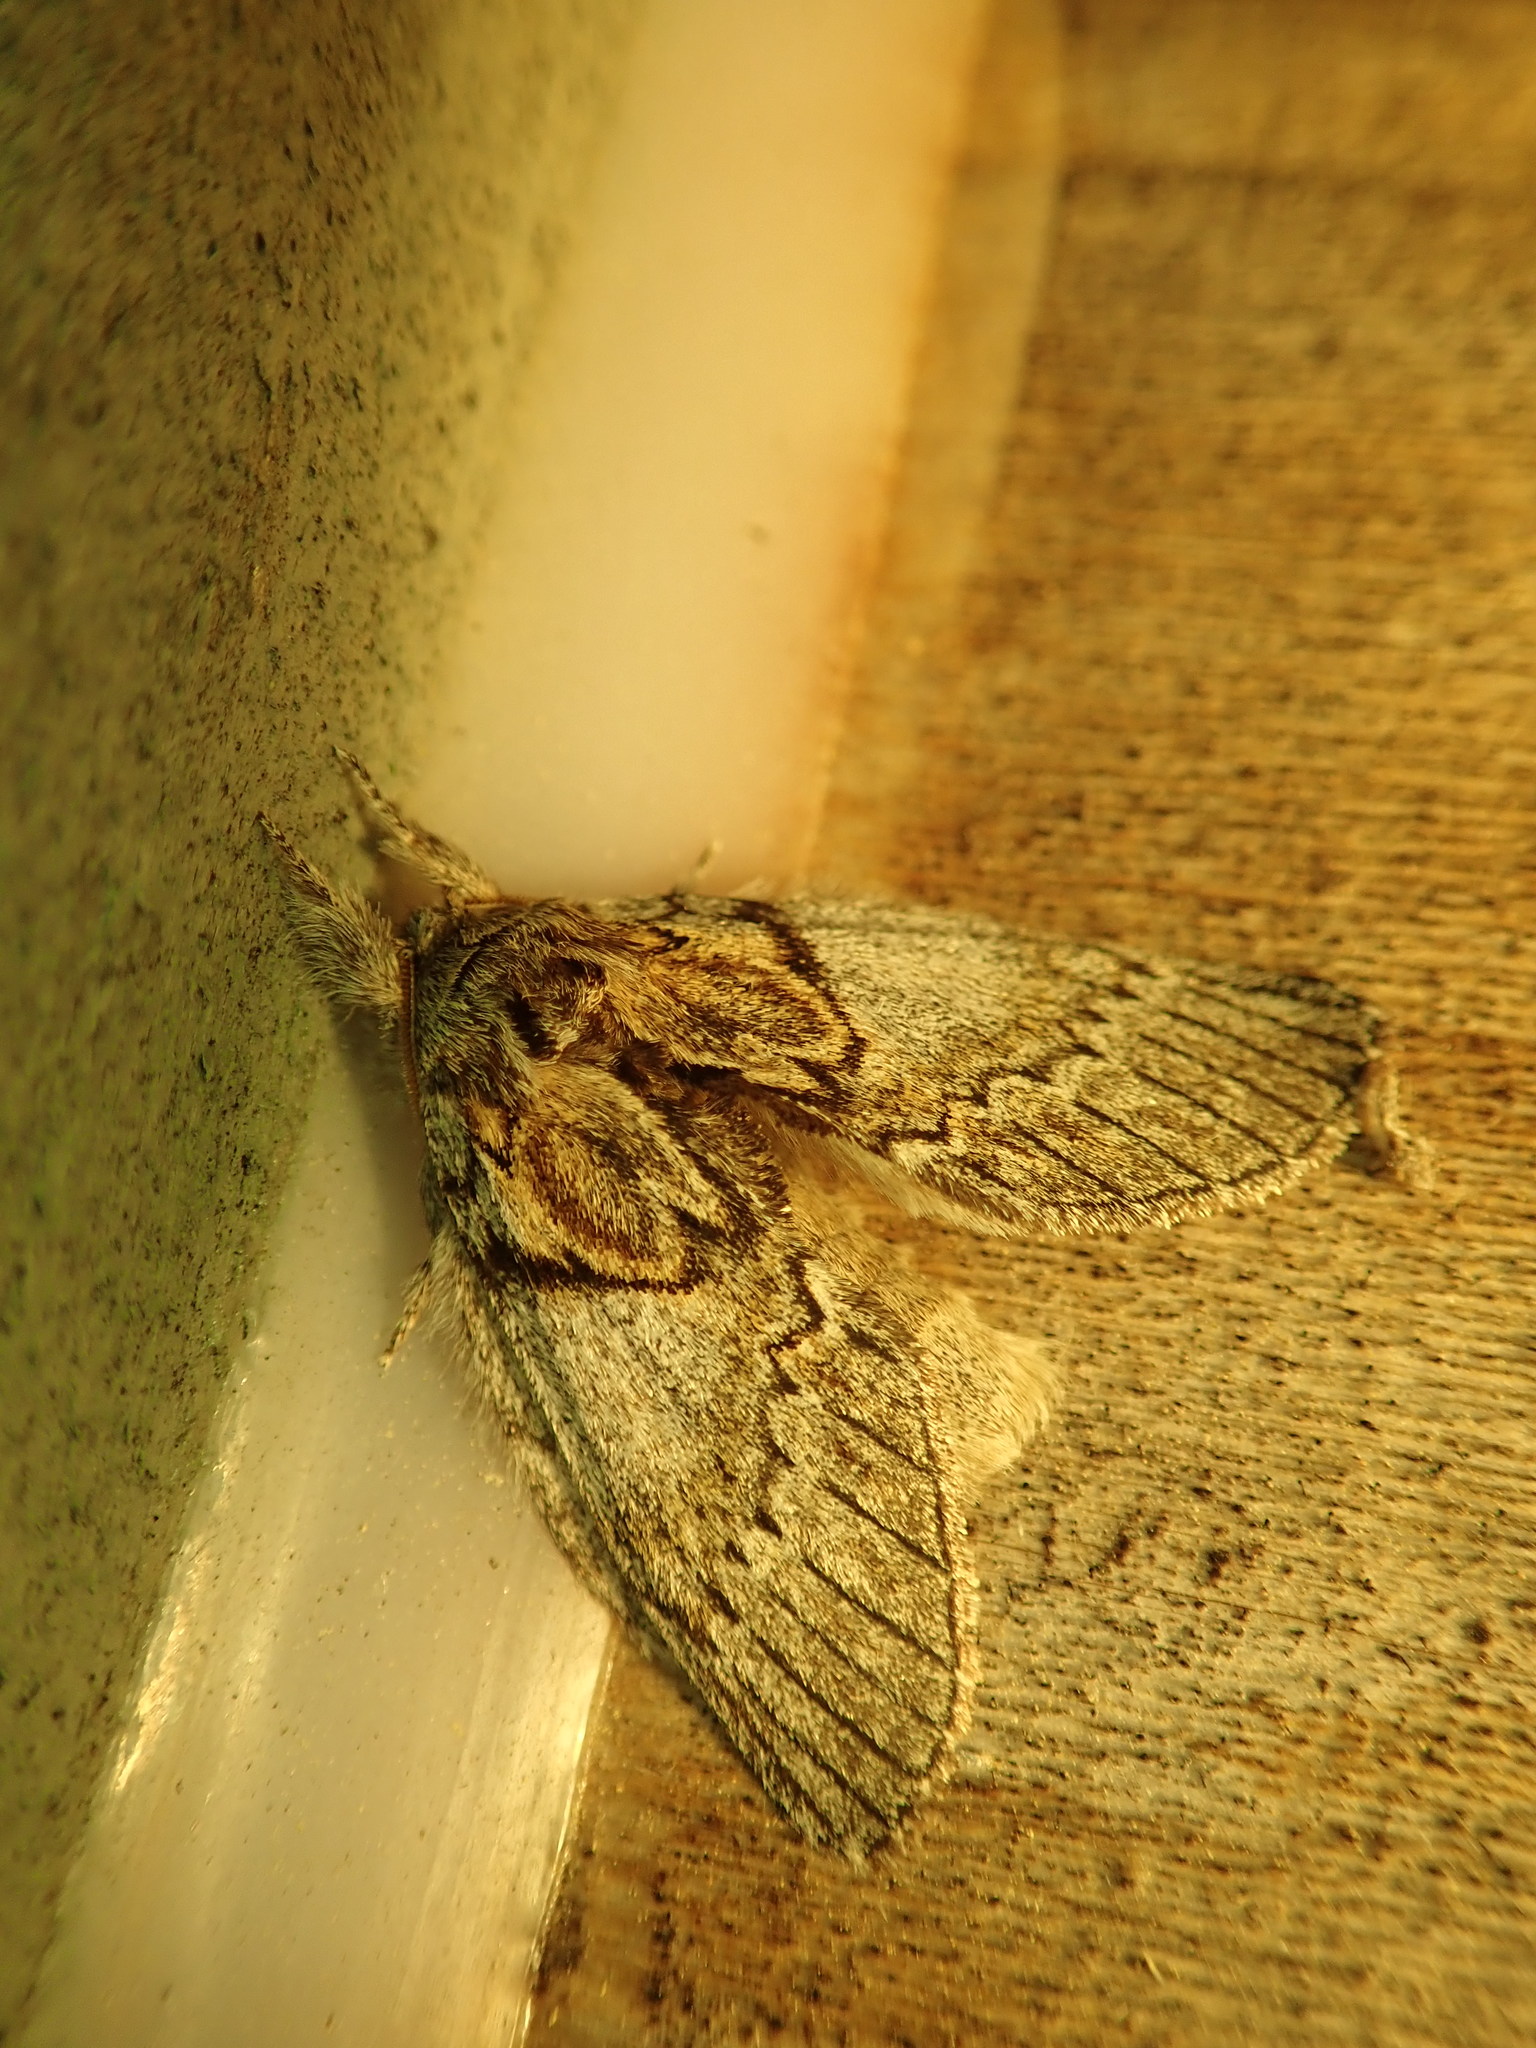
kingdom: Animalia
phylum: Arthropoda
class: Insecta
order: Lepidoptera
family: Notodontidae
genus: Peridea
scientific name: Peridea basitriens
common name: Oval-based prominent
